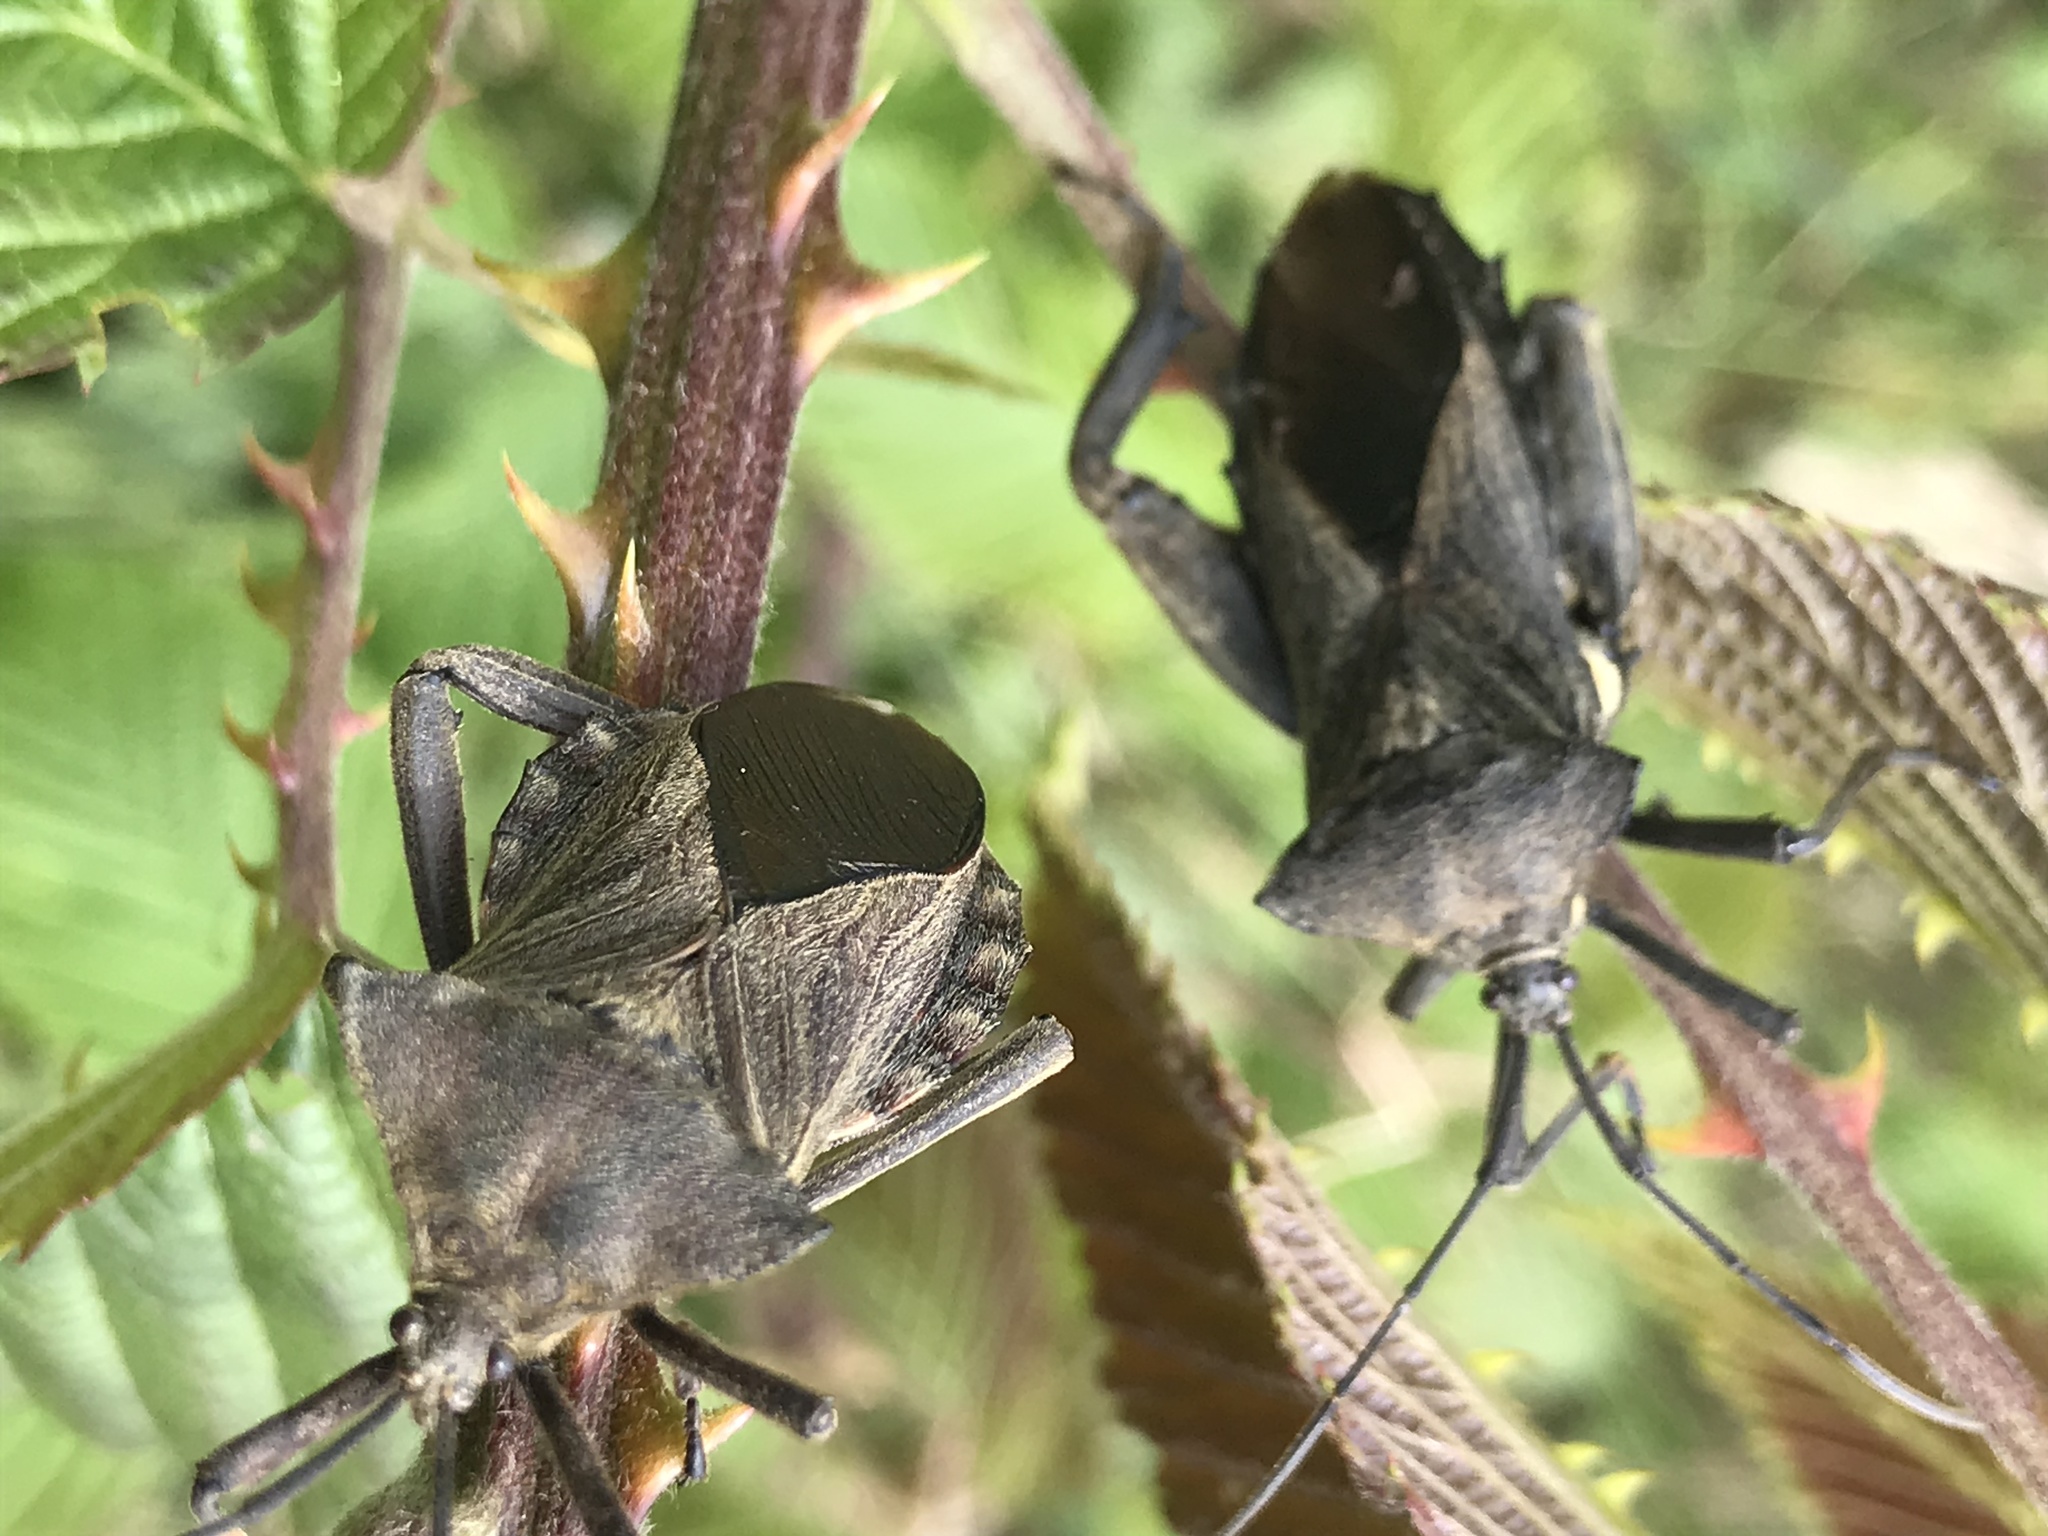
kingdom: Animalia
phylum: Arthropoda
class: Insecta
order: Hemiptera
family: Coreidae
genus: Thasus
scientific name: Thasus heteropus
